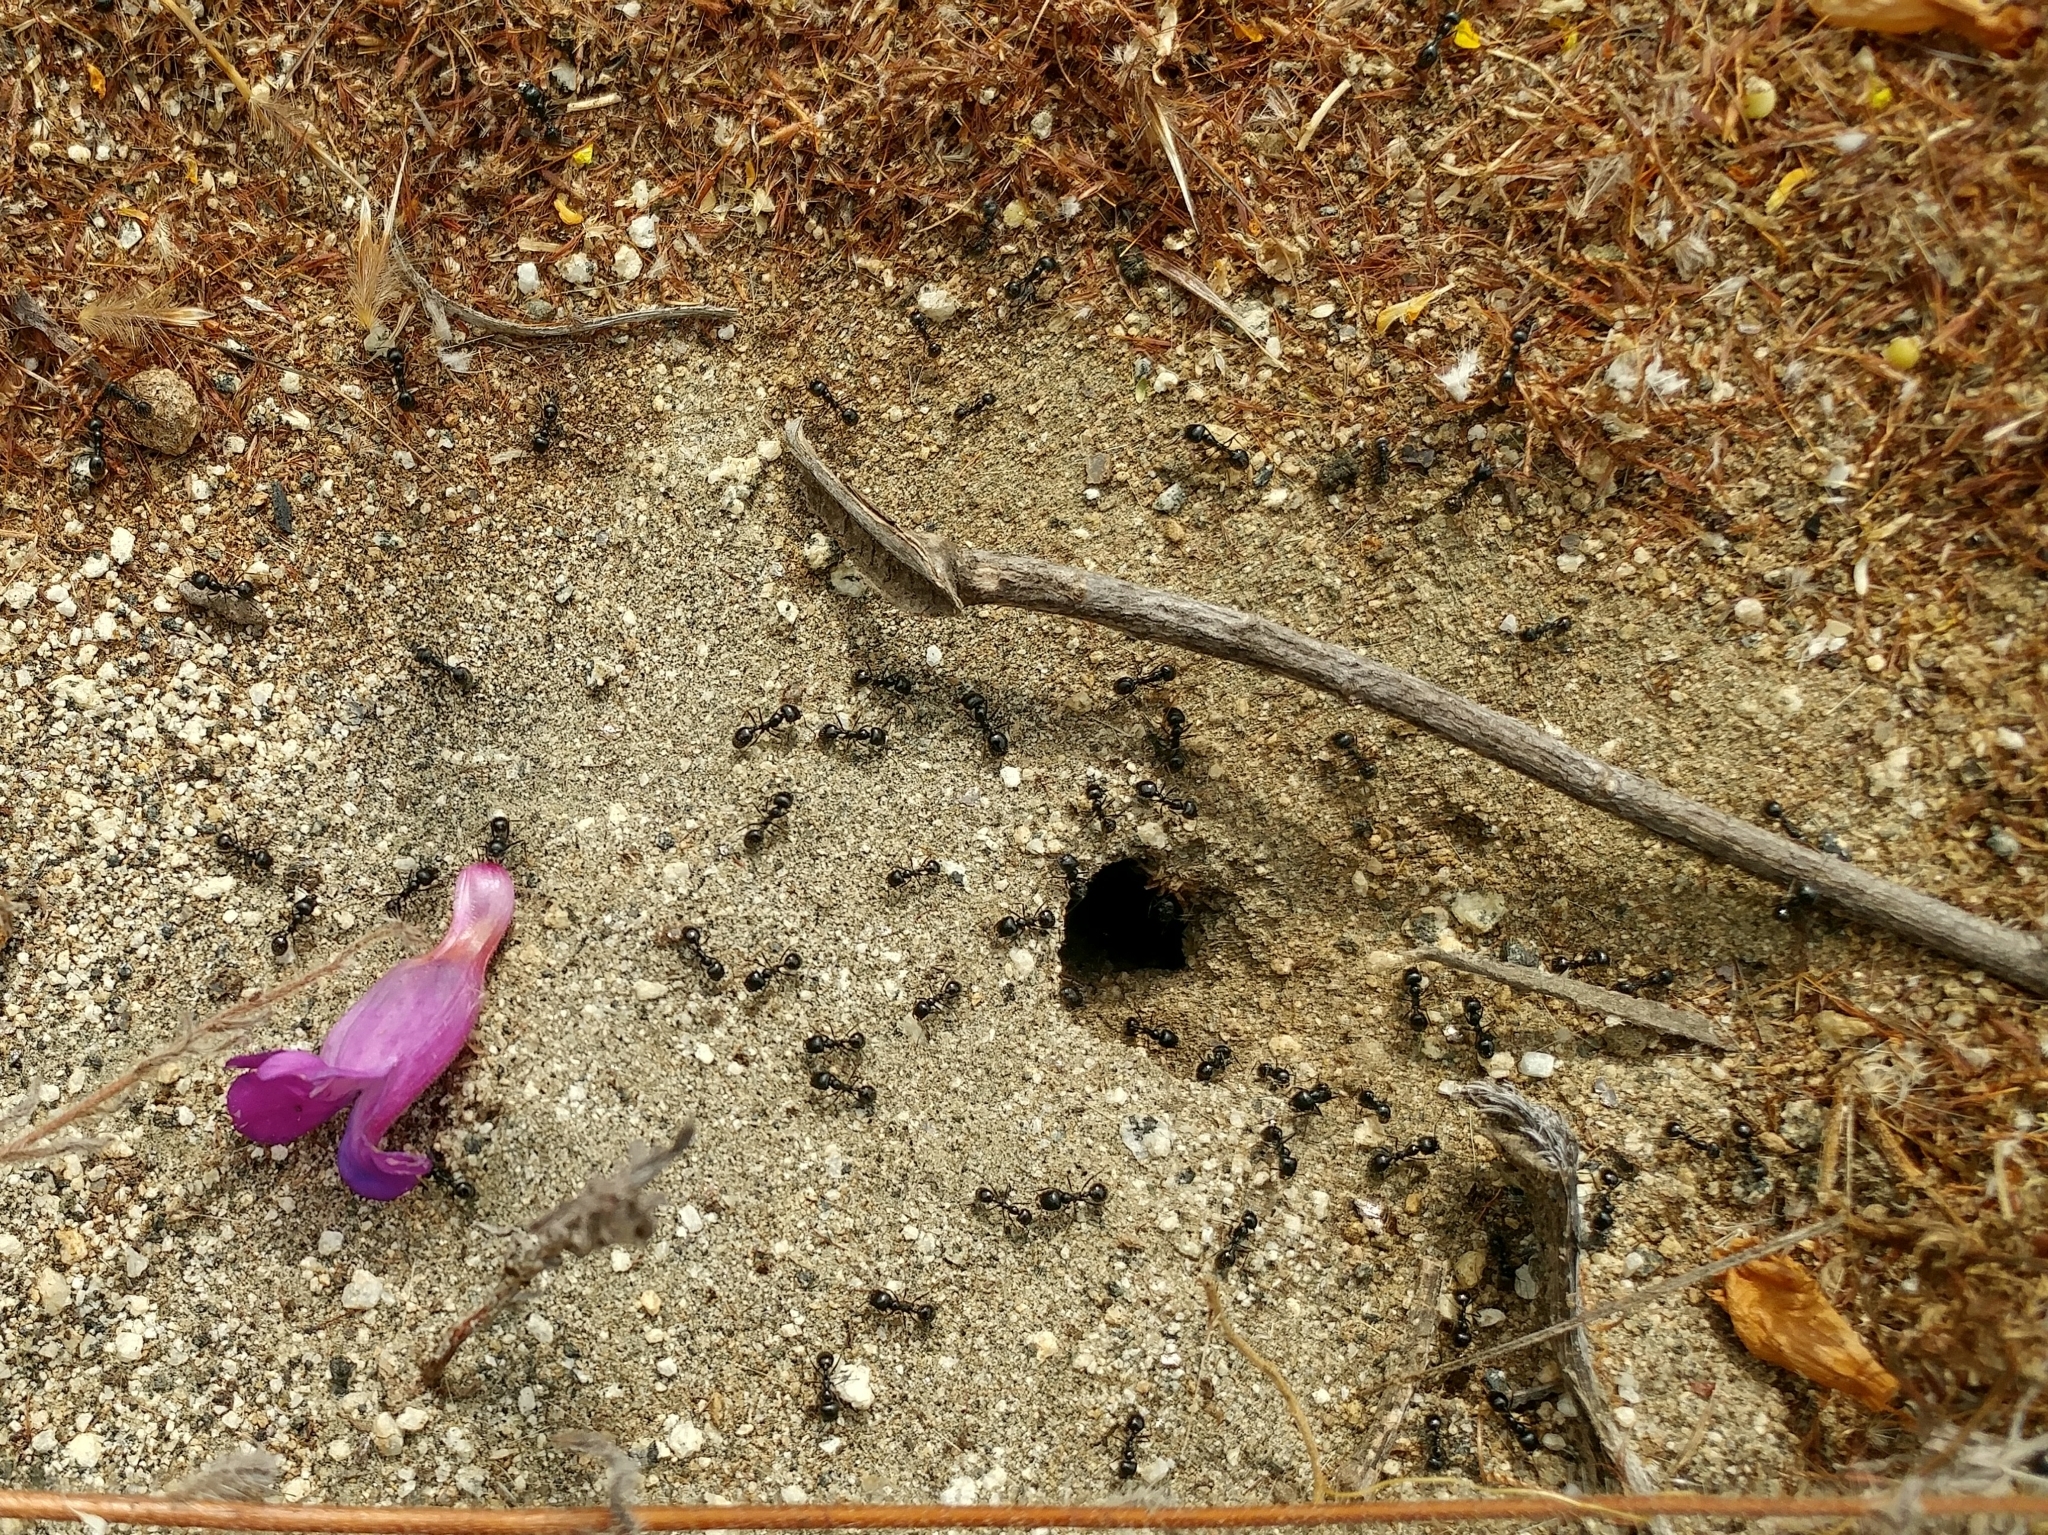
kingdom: Animalia
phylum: Arthropoda
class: Insecta
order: Hymenoptera
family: Formicidae
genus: Messor
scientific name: Messor pergandei
